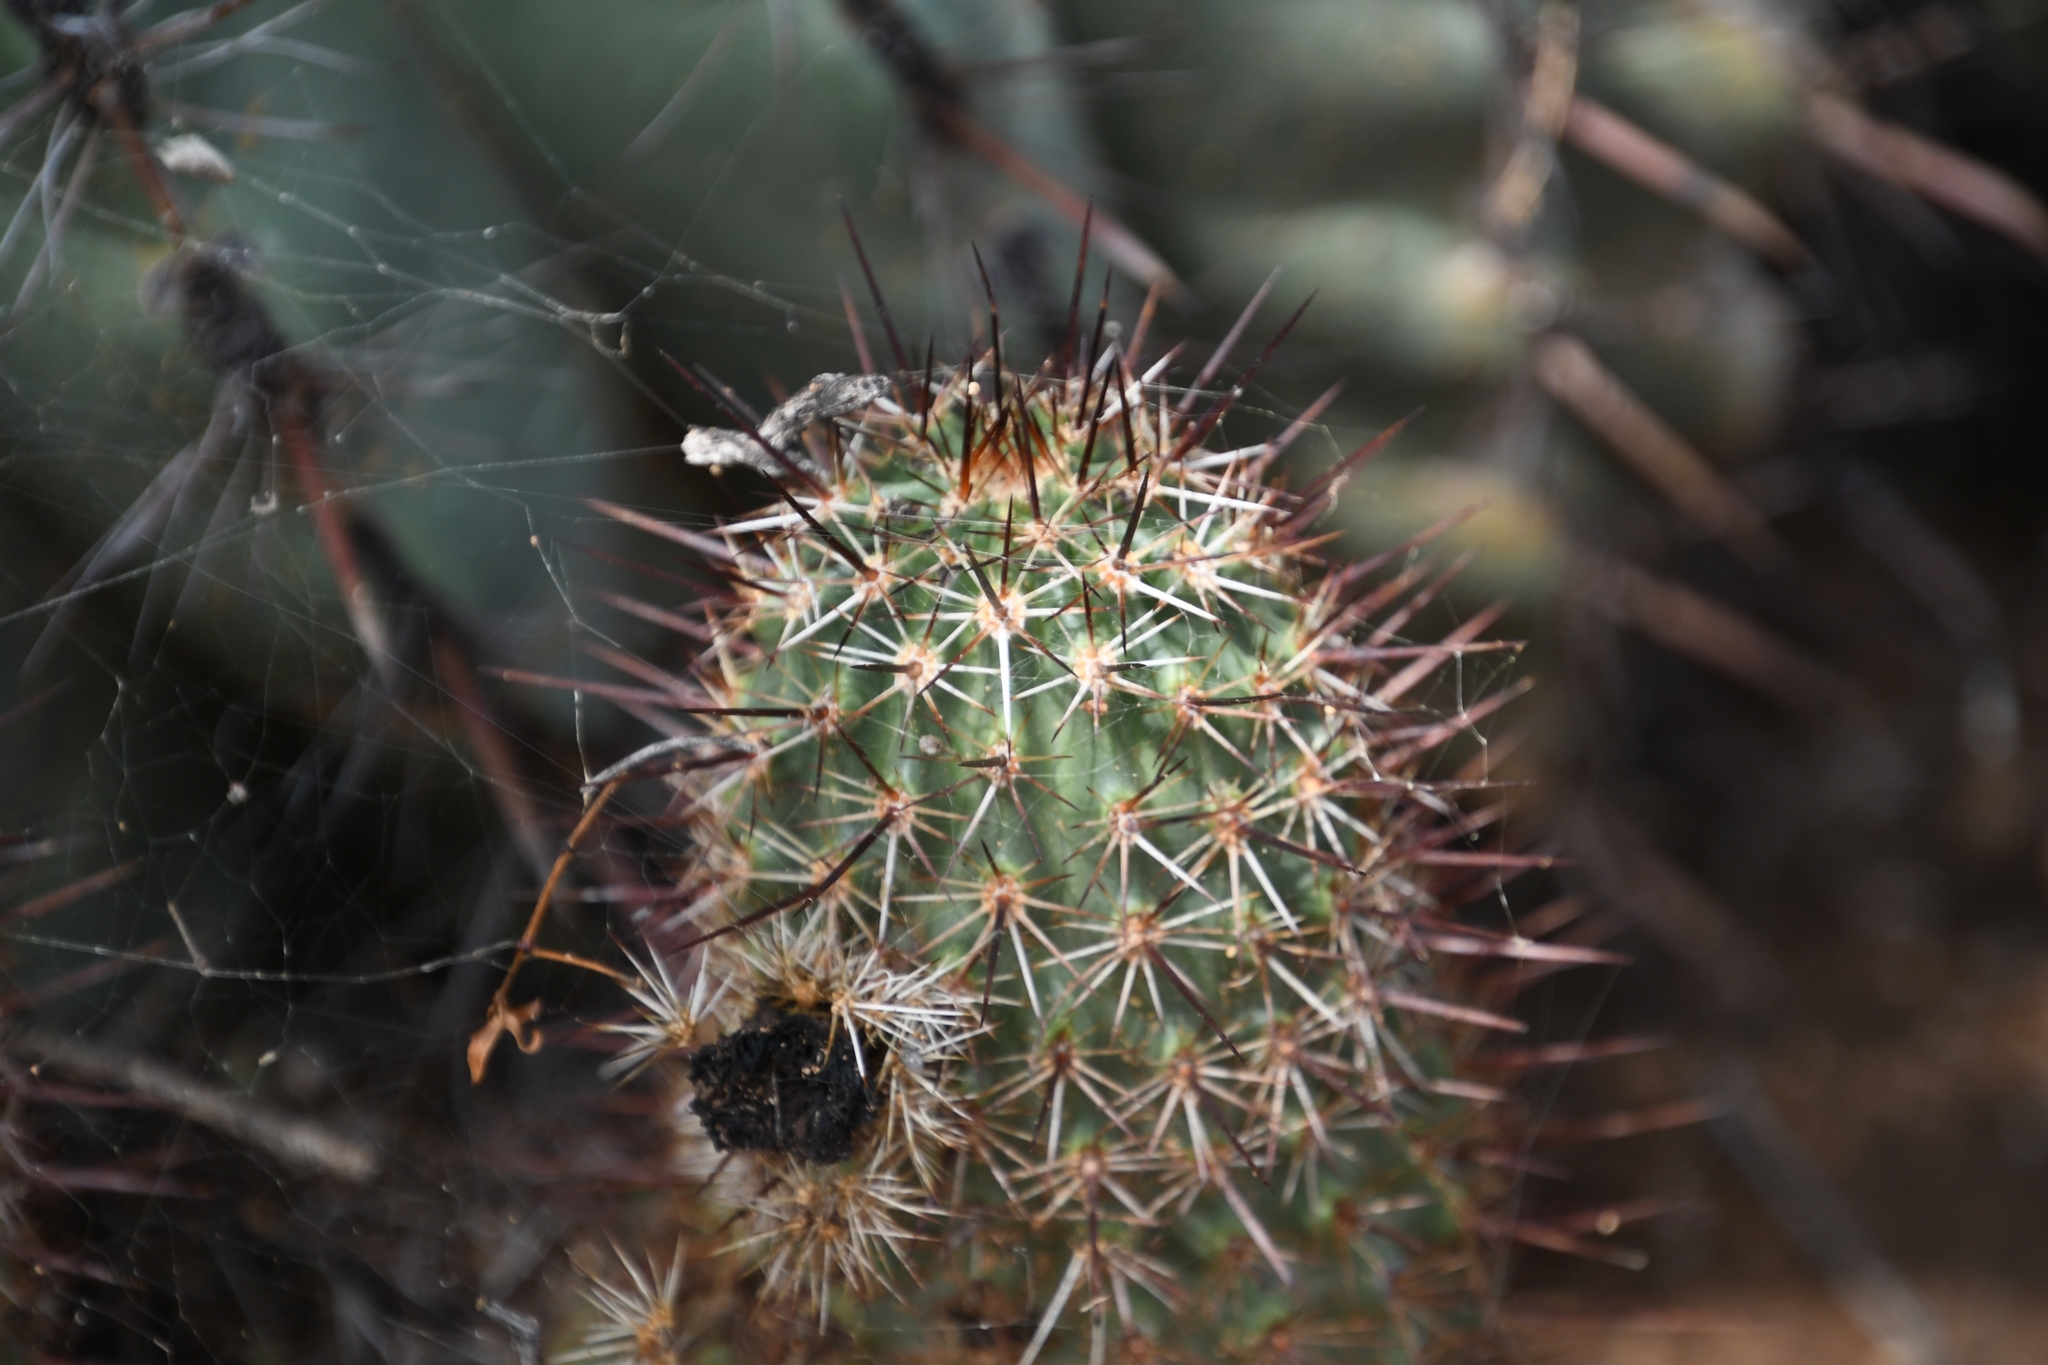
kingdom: Plantae
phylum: Tracheophyta
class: Magnoliopsida
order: Caryophyllales
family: Cactaceae
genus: Echinocereus
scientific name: Echinocereus fasciculatus
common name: Bundle hedgehog
